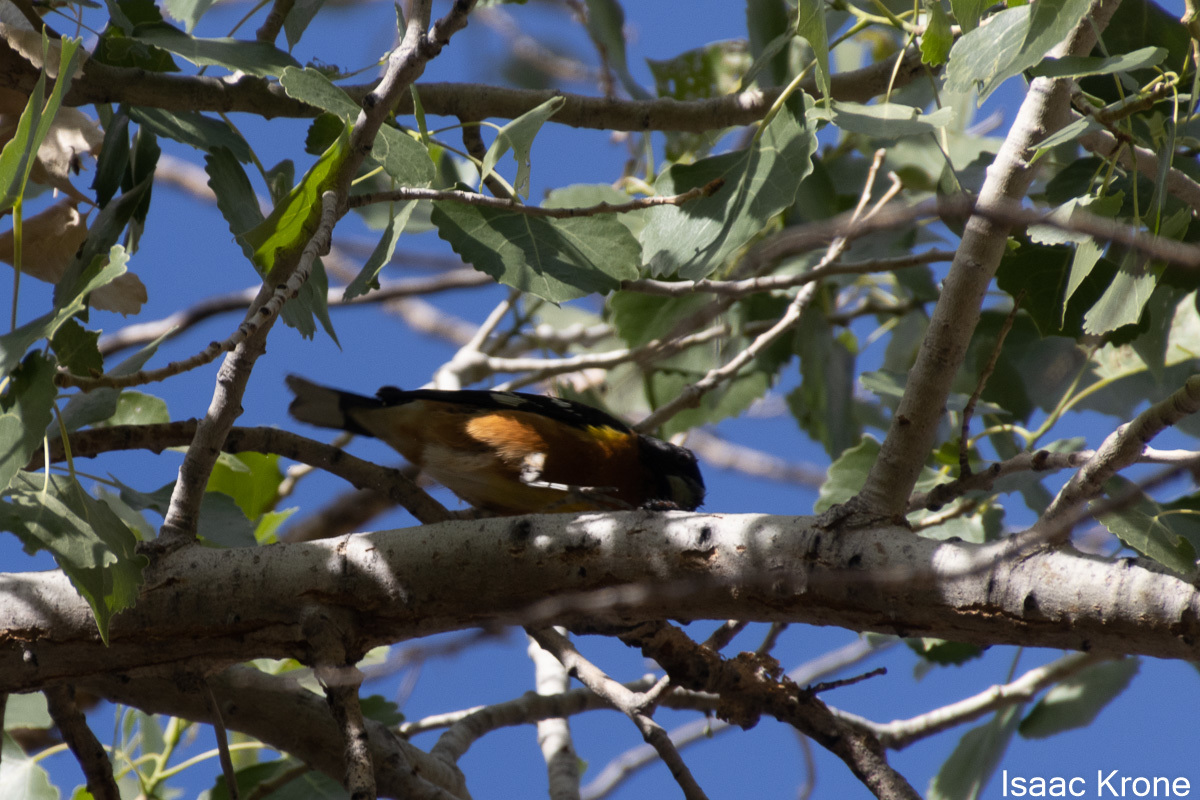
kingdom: Animalia
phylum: Chordata
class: Aves
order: Passeriformes
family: Cardinalidae
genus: Pheucticus
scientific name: Pheucticus melanocephalus
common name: Black-headed grosbeak
